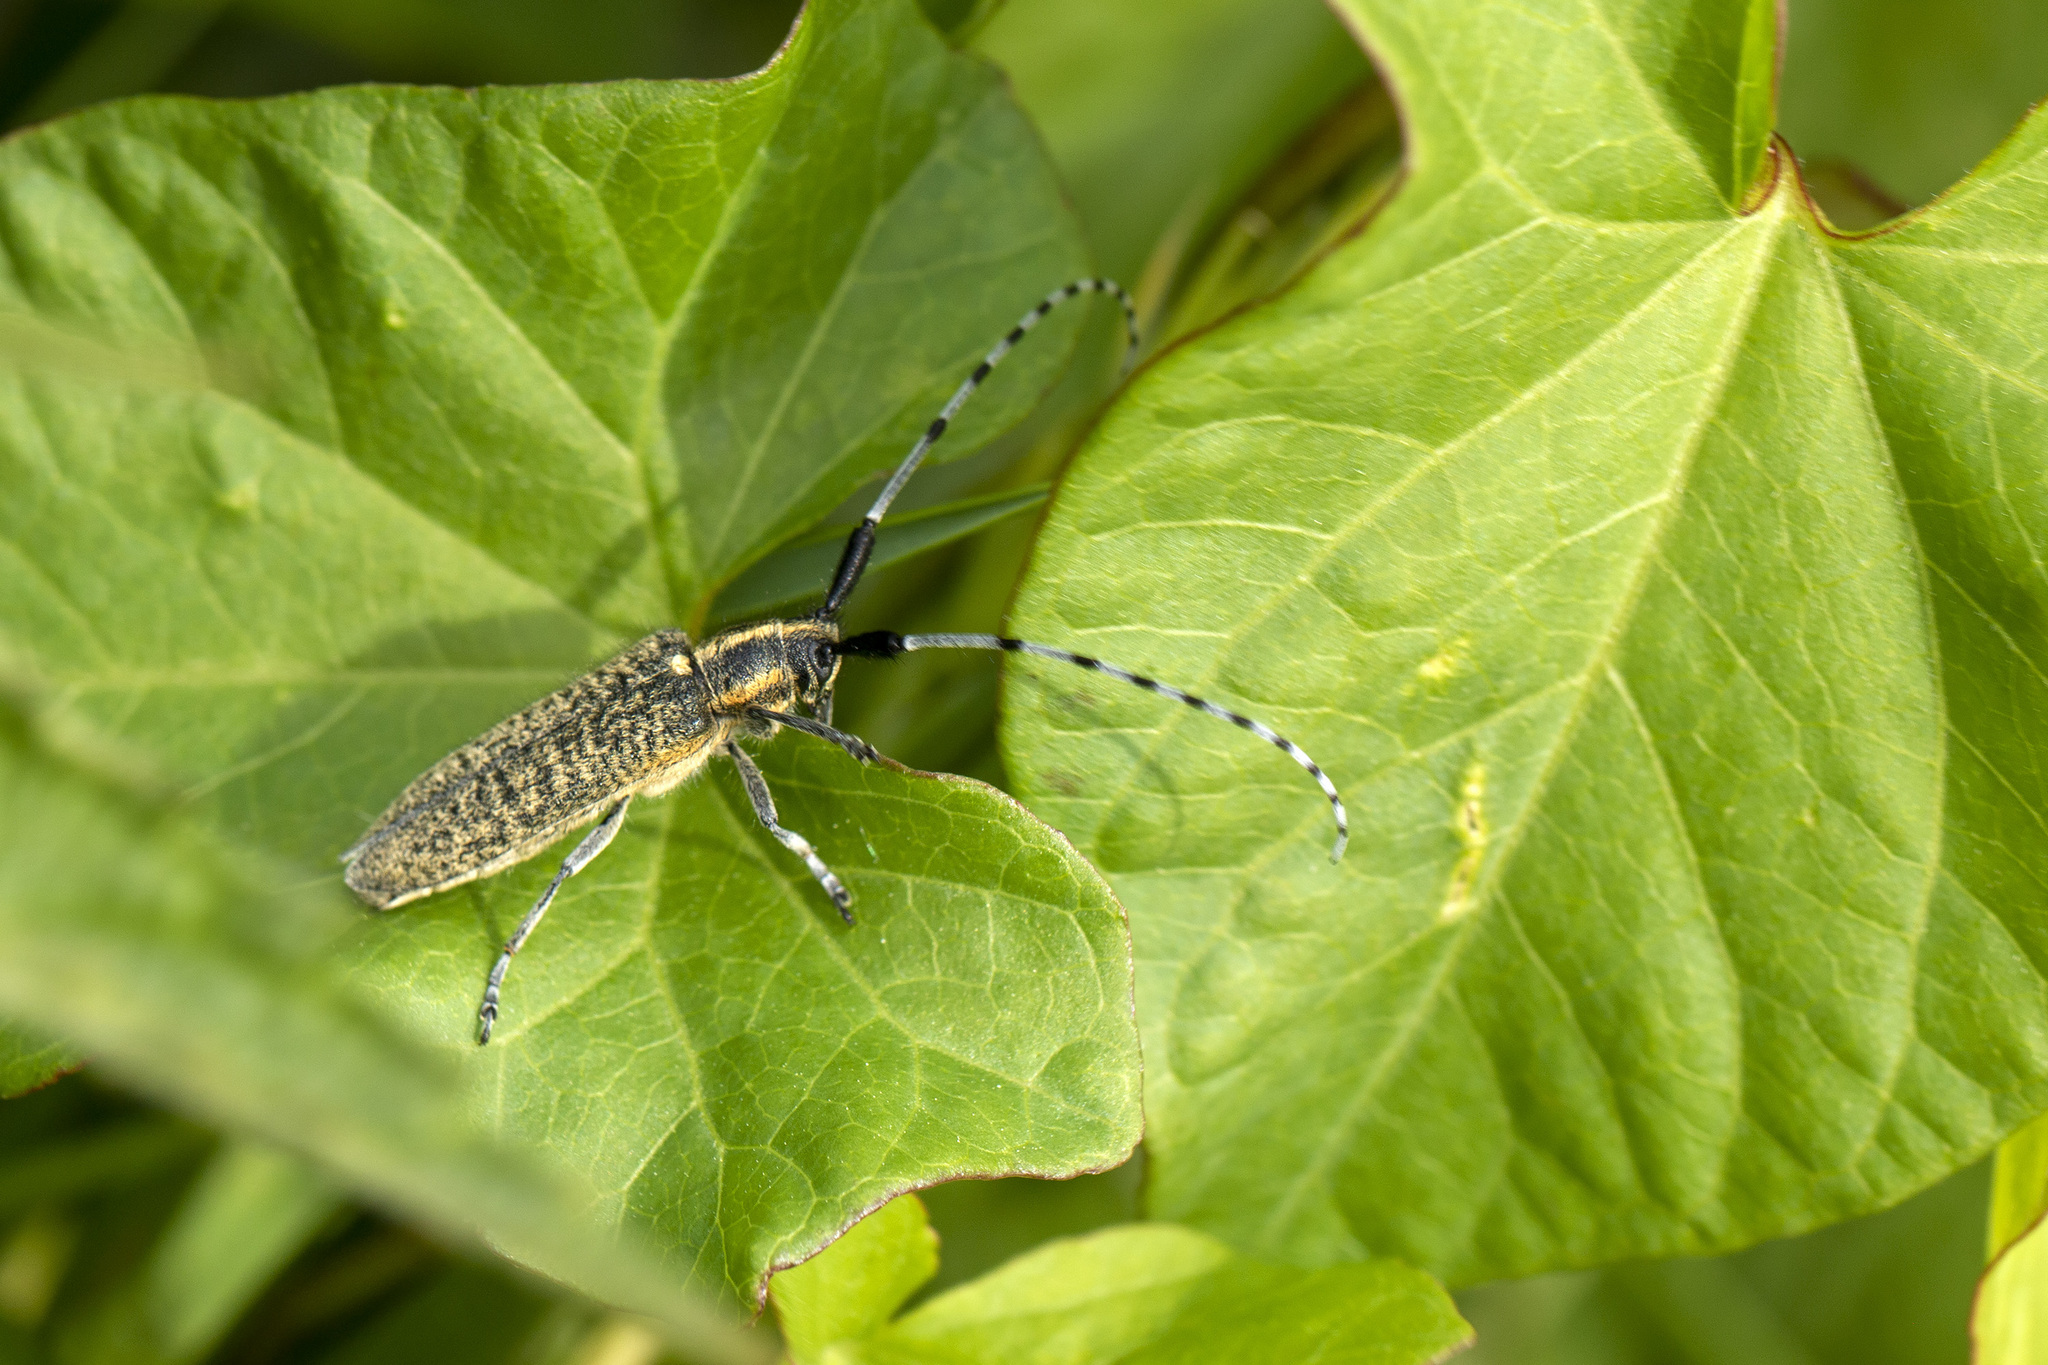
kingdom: Animalia
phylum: Arthropoda
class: Insecta
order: Coleoptera
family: Cerambycidae
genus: Agapanthia
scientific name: Agapanthia villosoviridescens
